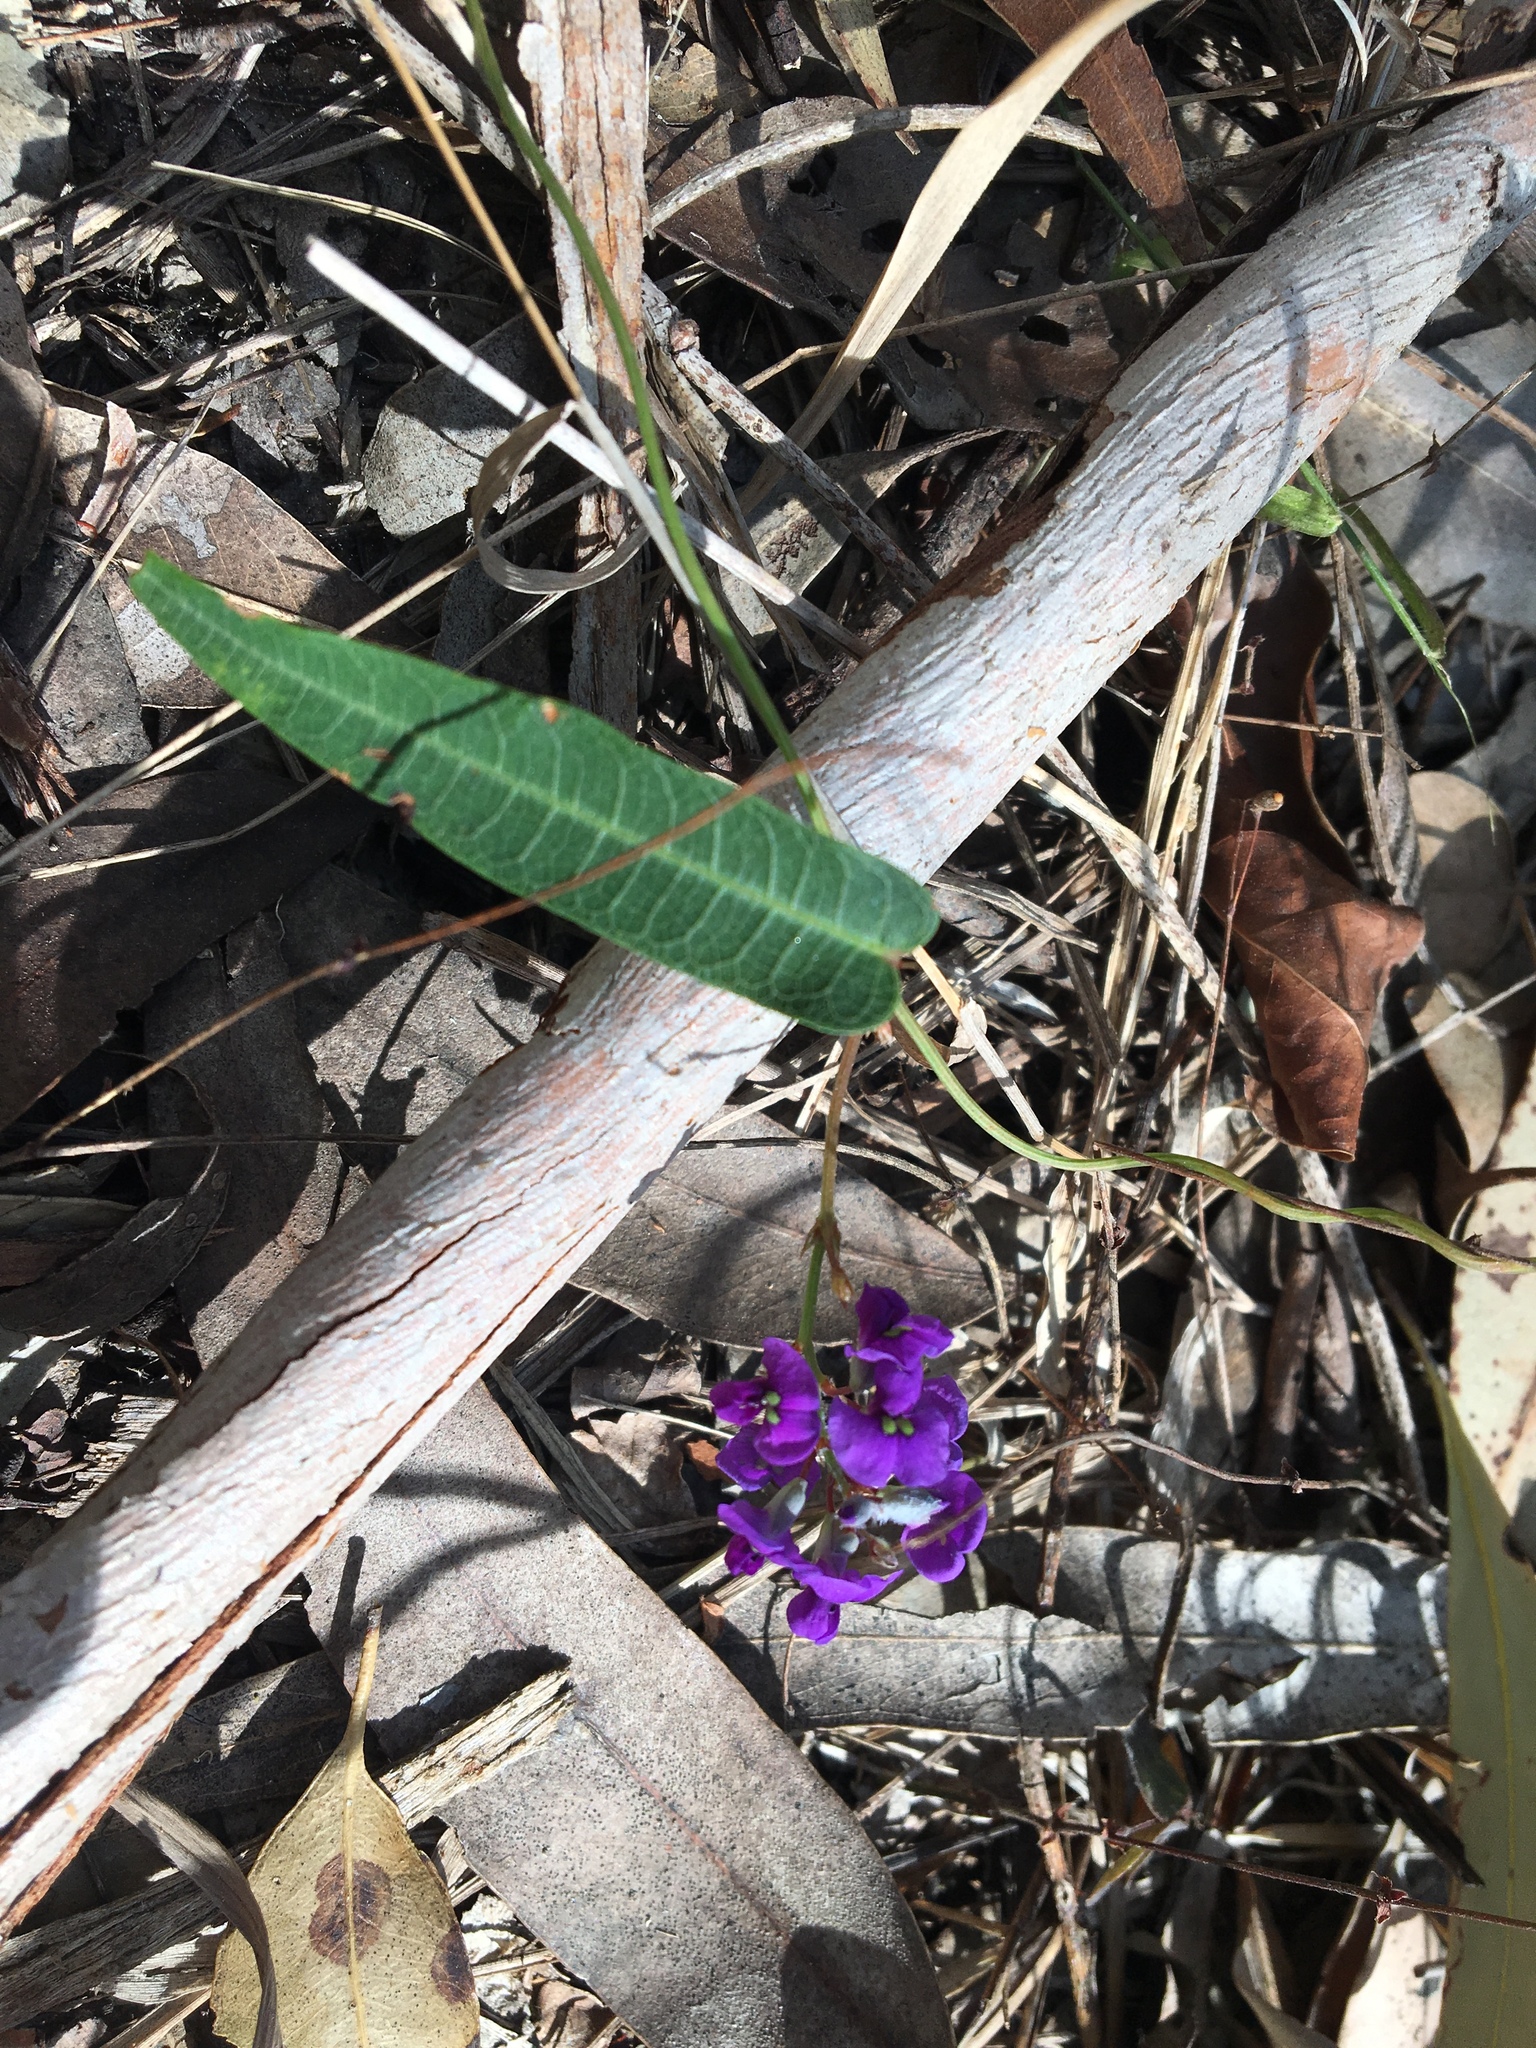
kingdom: Plantae
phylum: Tracheophyta
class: Magnoliopsida
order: Fabales
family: Fabaceae
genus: Hardenbergia
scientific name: Hardenbergia violacea
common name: Coral-pea
